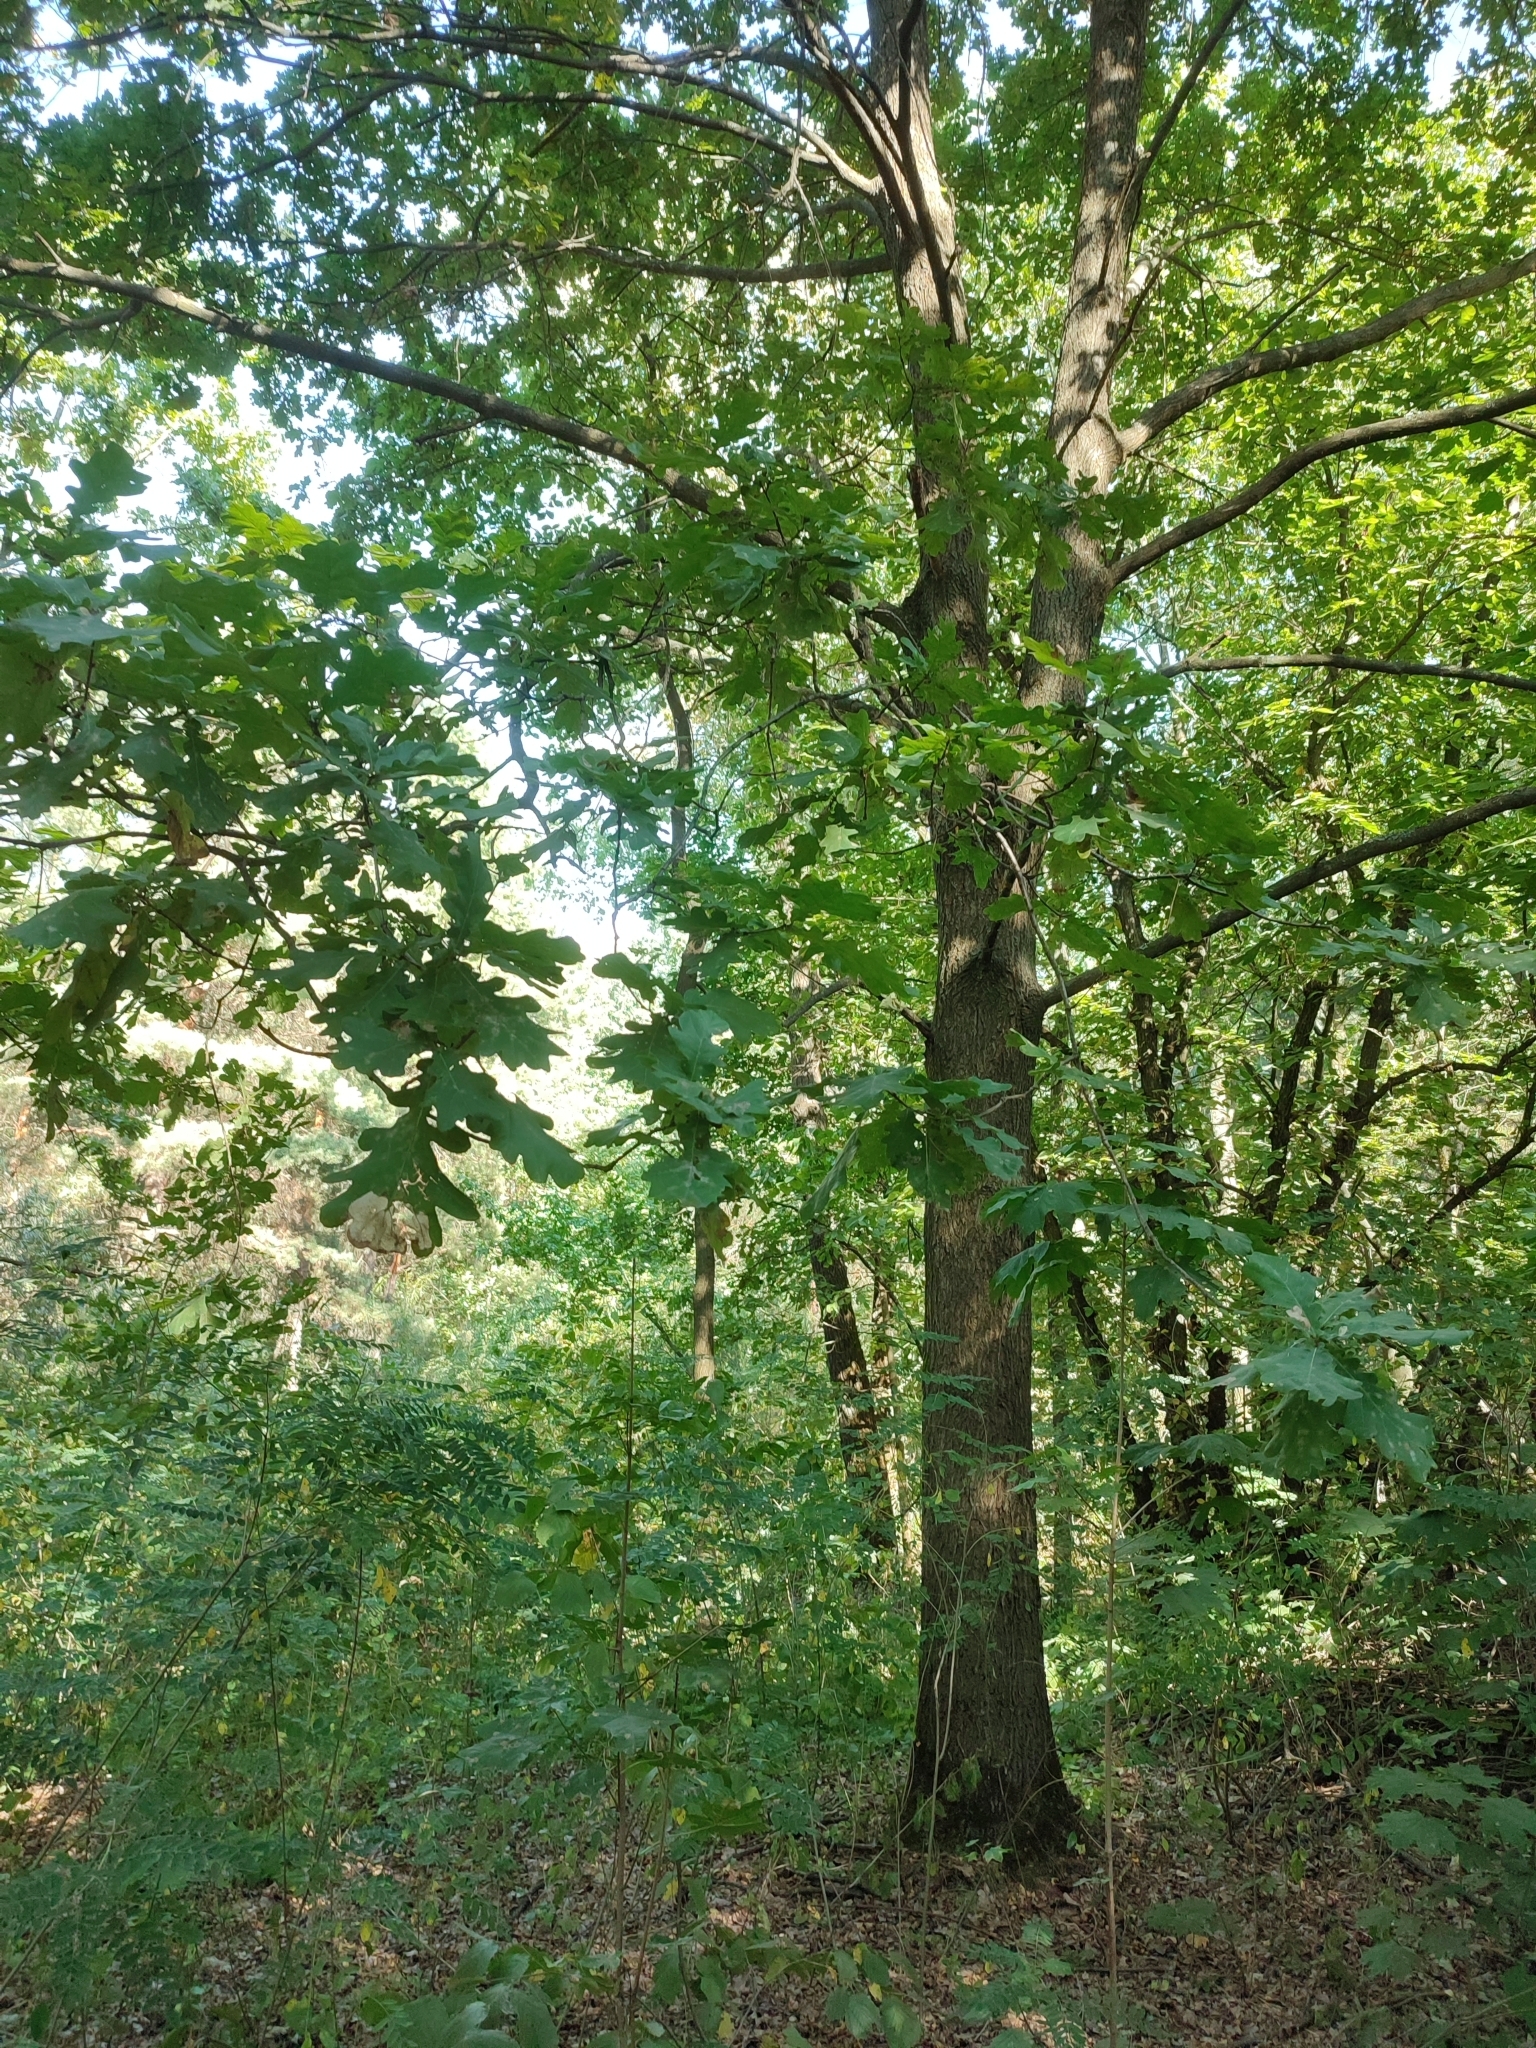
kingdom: Plantae
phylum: Tracheophyta
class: Magnoliopsida
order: Fagales
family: Fagaceae
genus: Quercus
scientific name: Quercus robur
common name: Pedunculate oak
